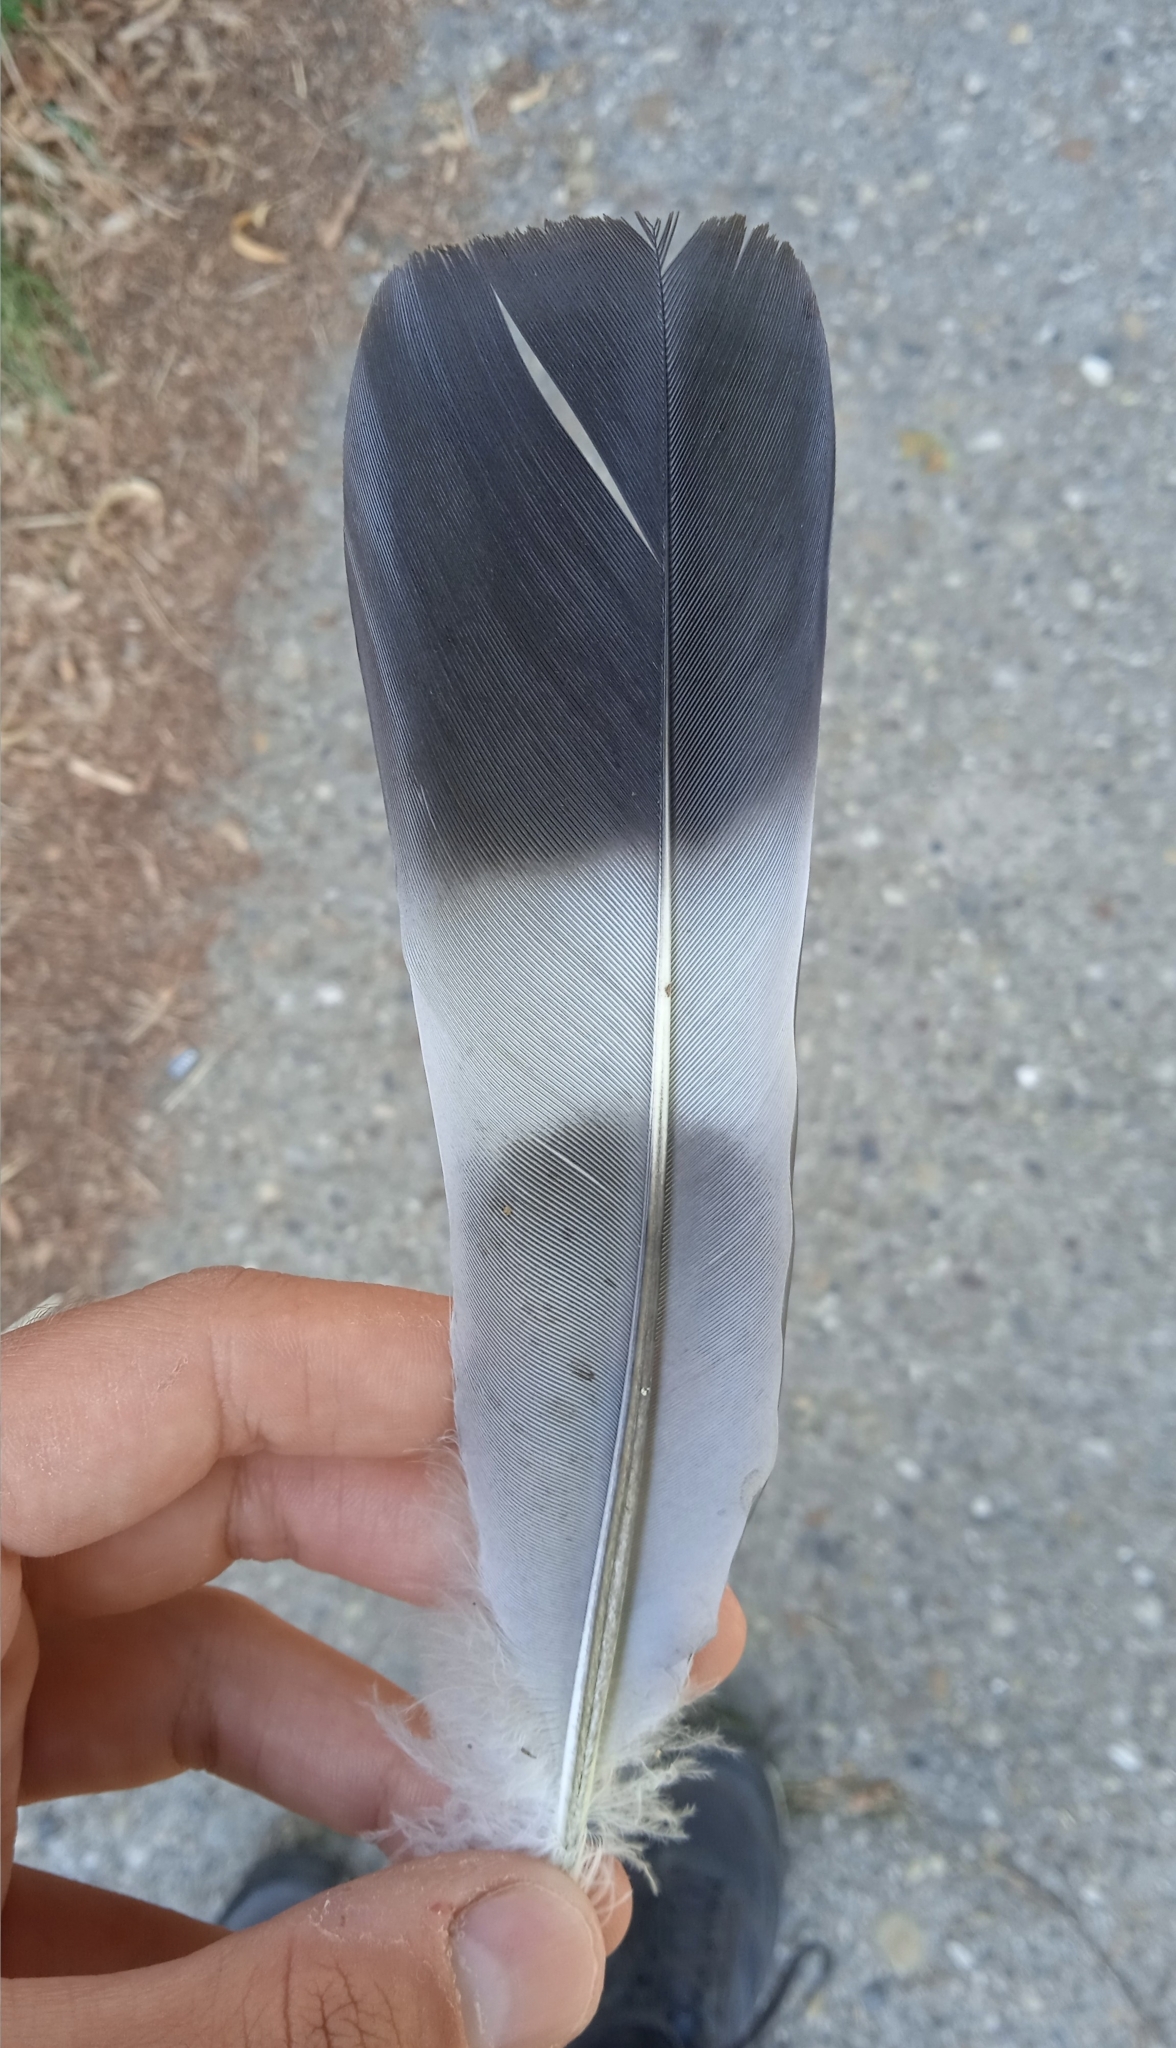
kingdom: Animalia
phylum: Chordata
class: Aves
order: Columbiformes
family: Columbidae
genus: Columba
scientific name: Columba palumbus
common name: Common wood pigeon
